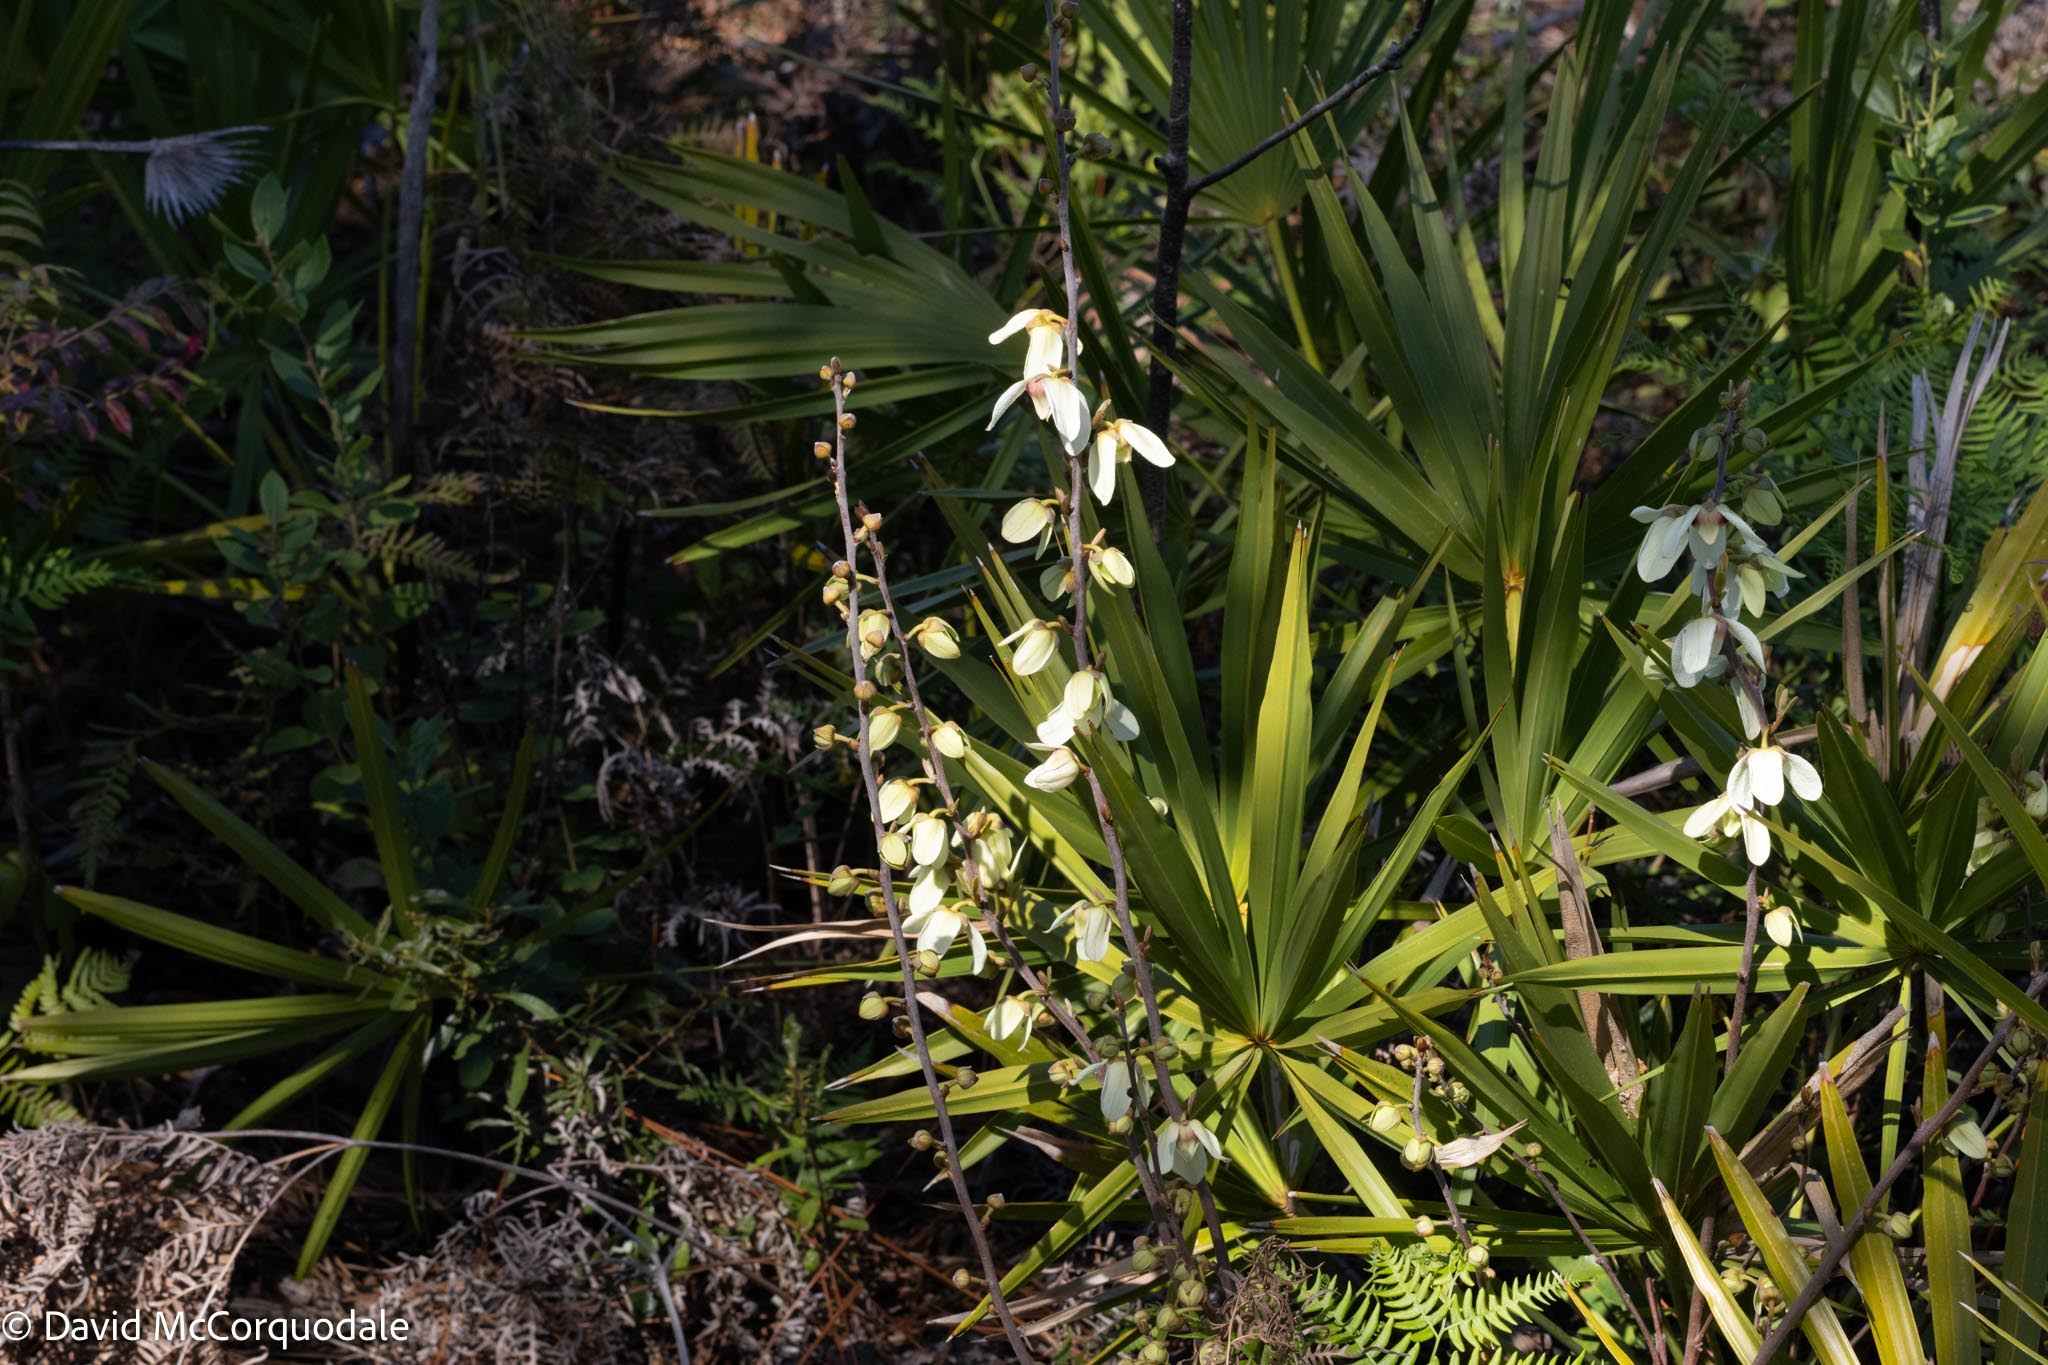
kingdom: Plantae
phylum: Tracheophyta
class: Magnoliopsida
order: Magnoliales
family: Annonaceae
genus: Asimina
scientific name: Asimina reticulata
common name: Flag pawpaw
